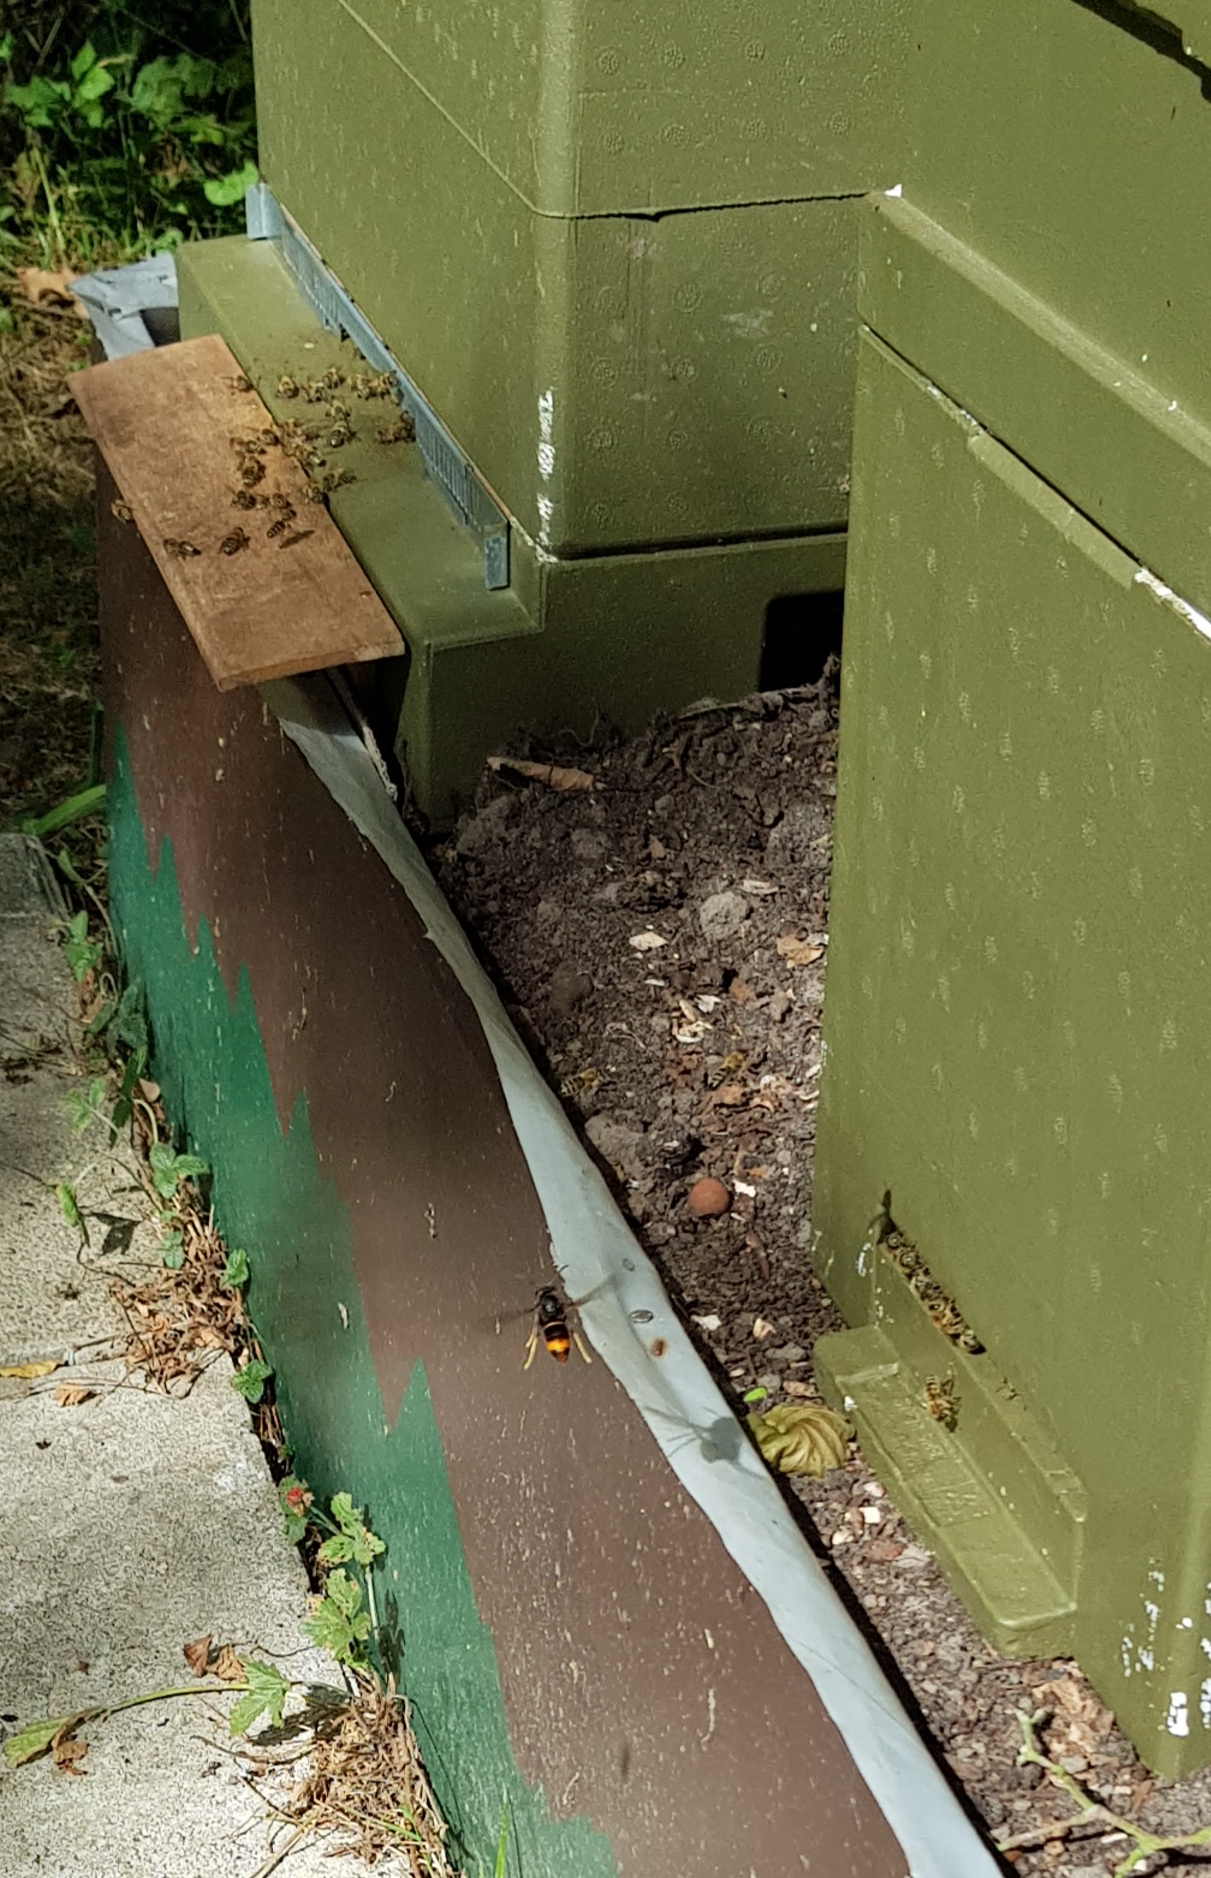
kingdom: Animalia
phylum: Arthropoda
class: Insecta
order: Hymenoptera
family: Vespidae
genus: Vespa
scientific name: Vespa velutina
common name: Asian hornet
